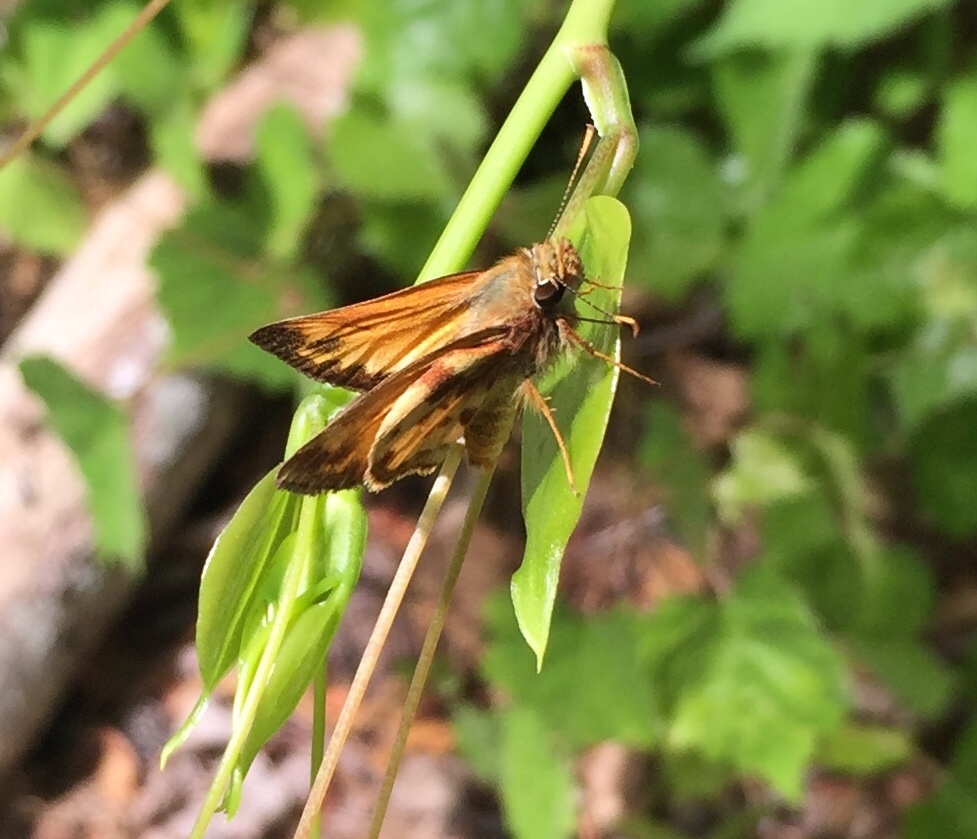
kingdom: Animalia
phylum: Arthropoda
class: Insecta
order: Lepidoptera
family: Hesperiidae
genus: Lon
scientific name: Lon zabulon
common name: Zabulon skipper
